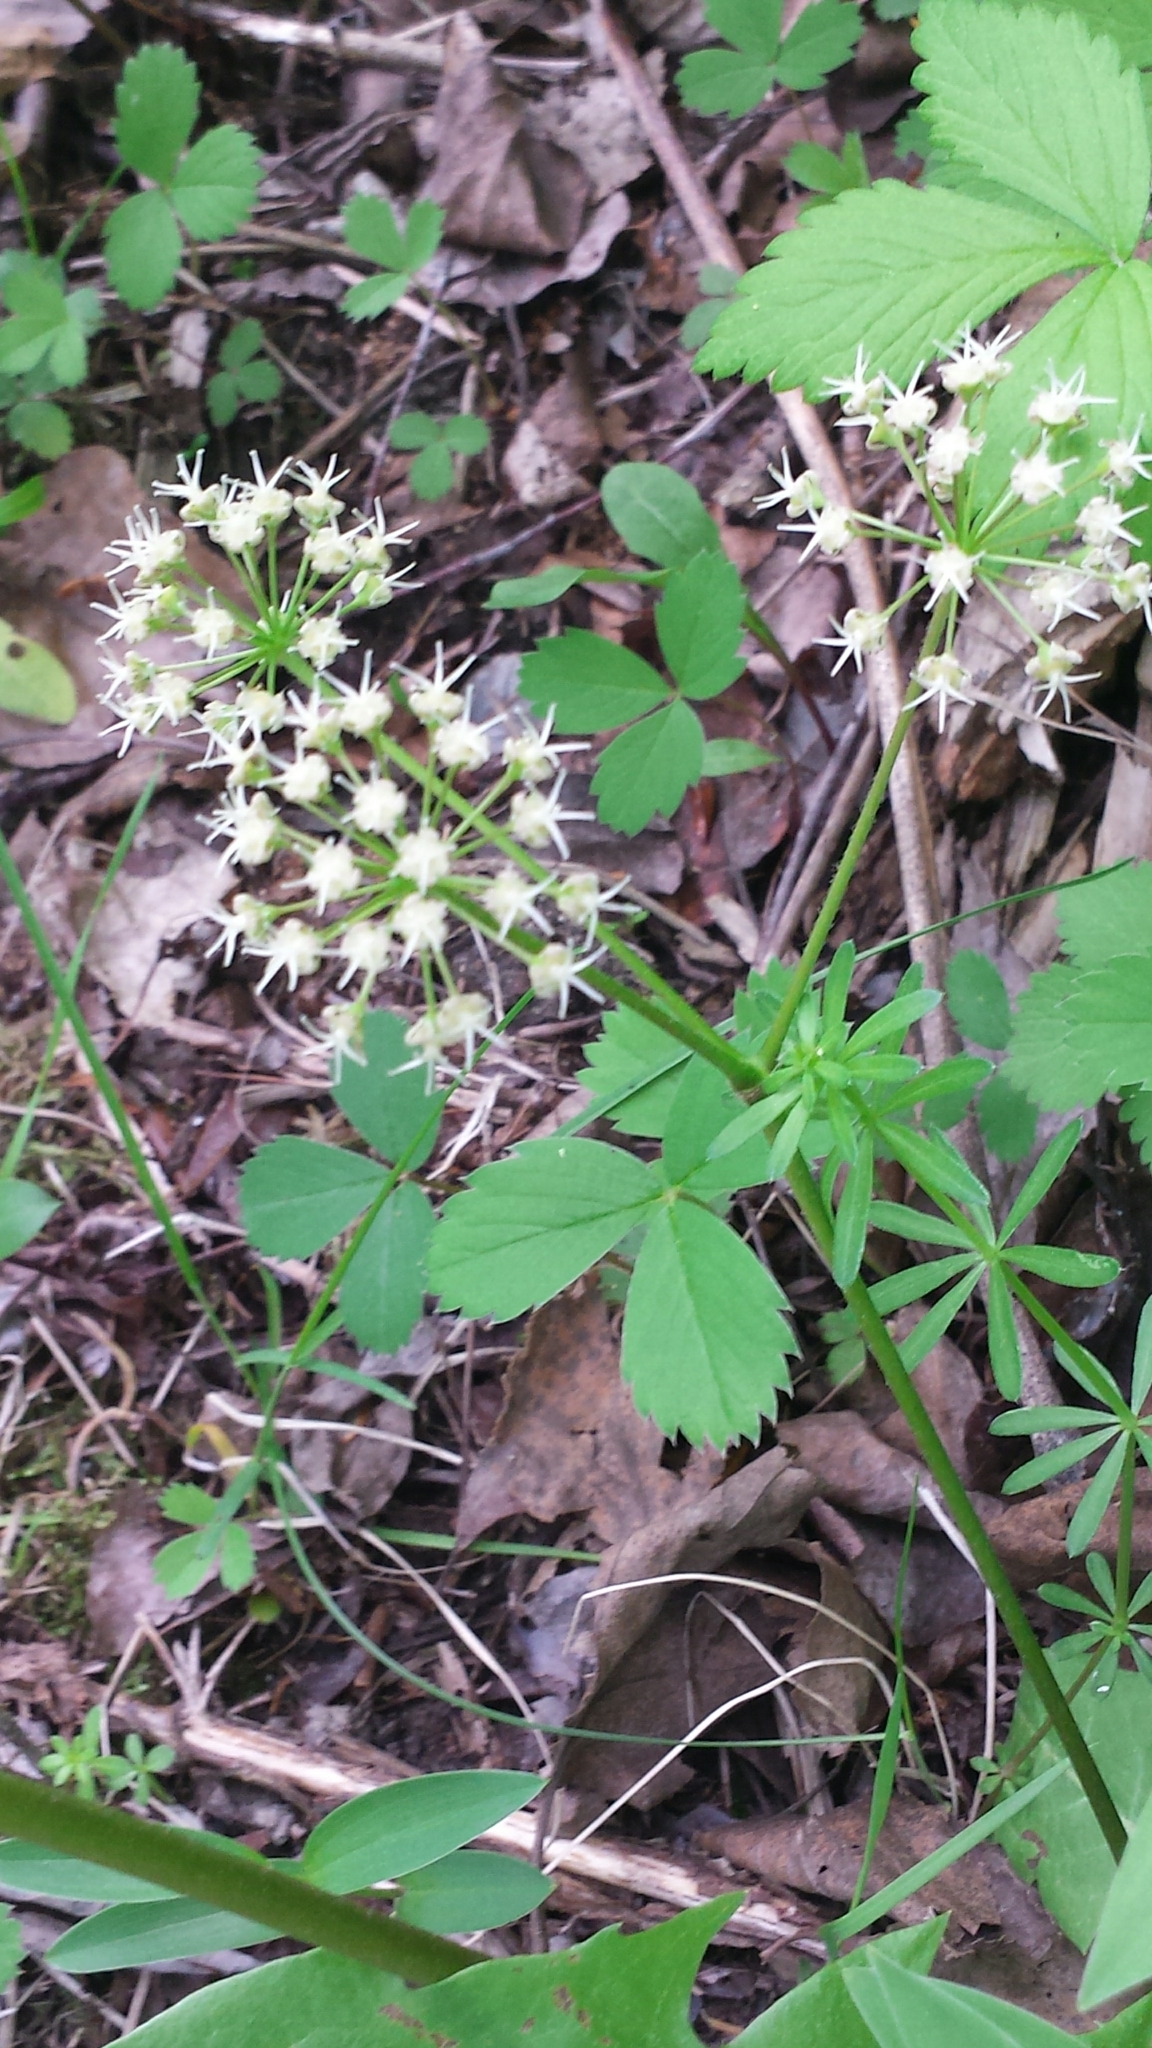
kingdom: Plantae
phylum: Tracheophyta
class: Magnoliopsida
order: Apiales
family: Araliaceae
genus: Aralia
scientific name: Aralia nudicaulis
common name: Wild sarsaparilla
